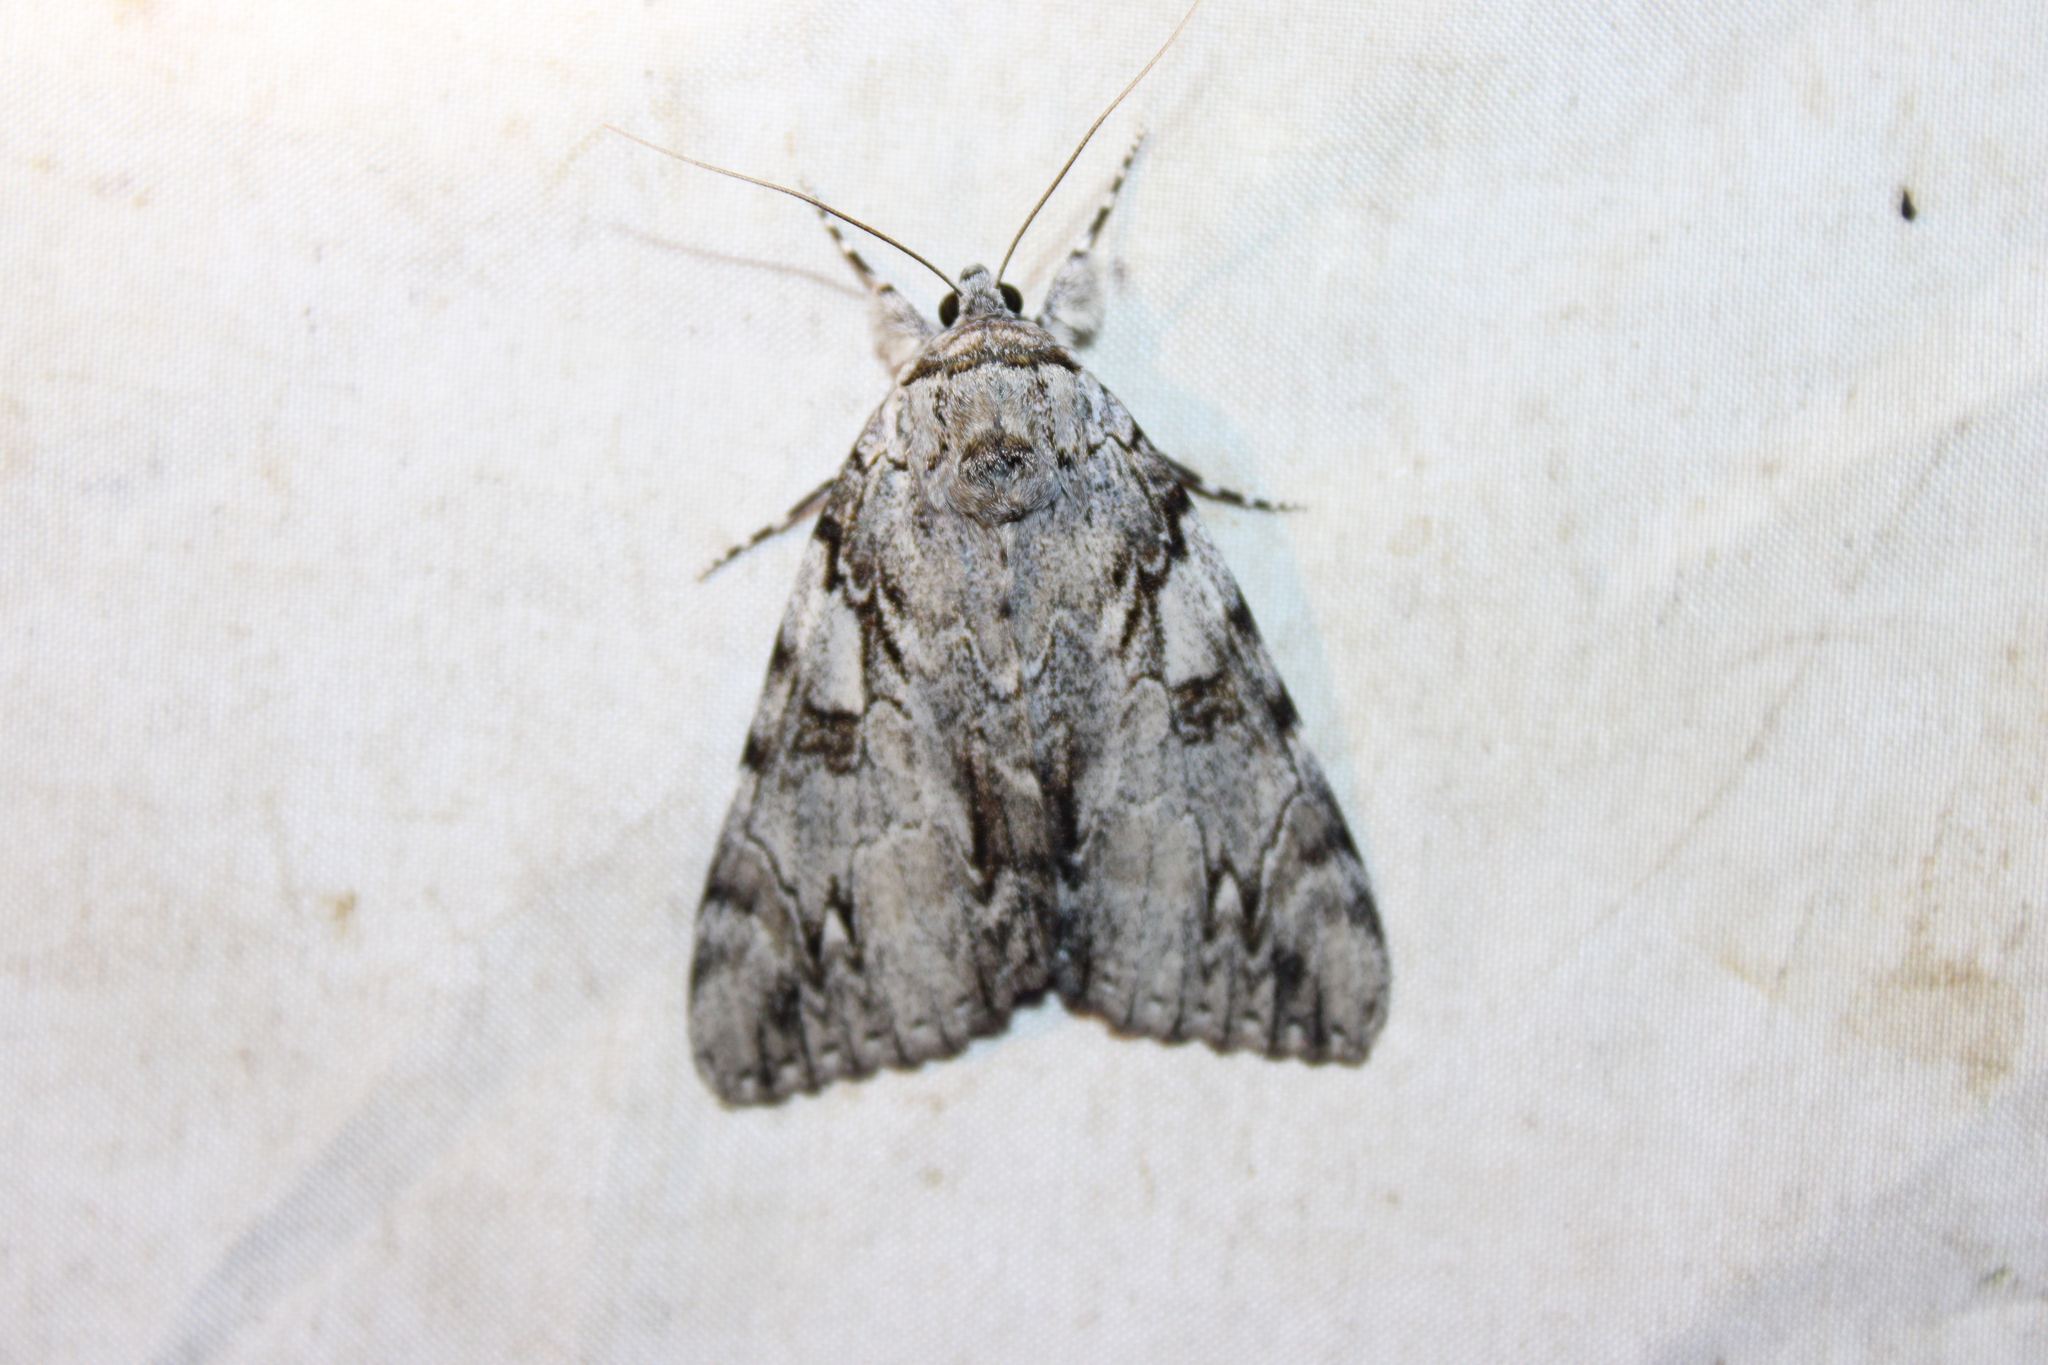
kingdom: Animalia
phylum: Arthropoda
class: Insecta
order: Lepidoptera
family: Erebidae
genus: Catocala
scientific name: Catocala dejecta
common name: Dejected underwing
